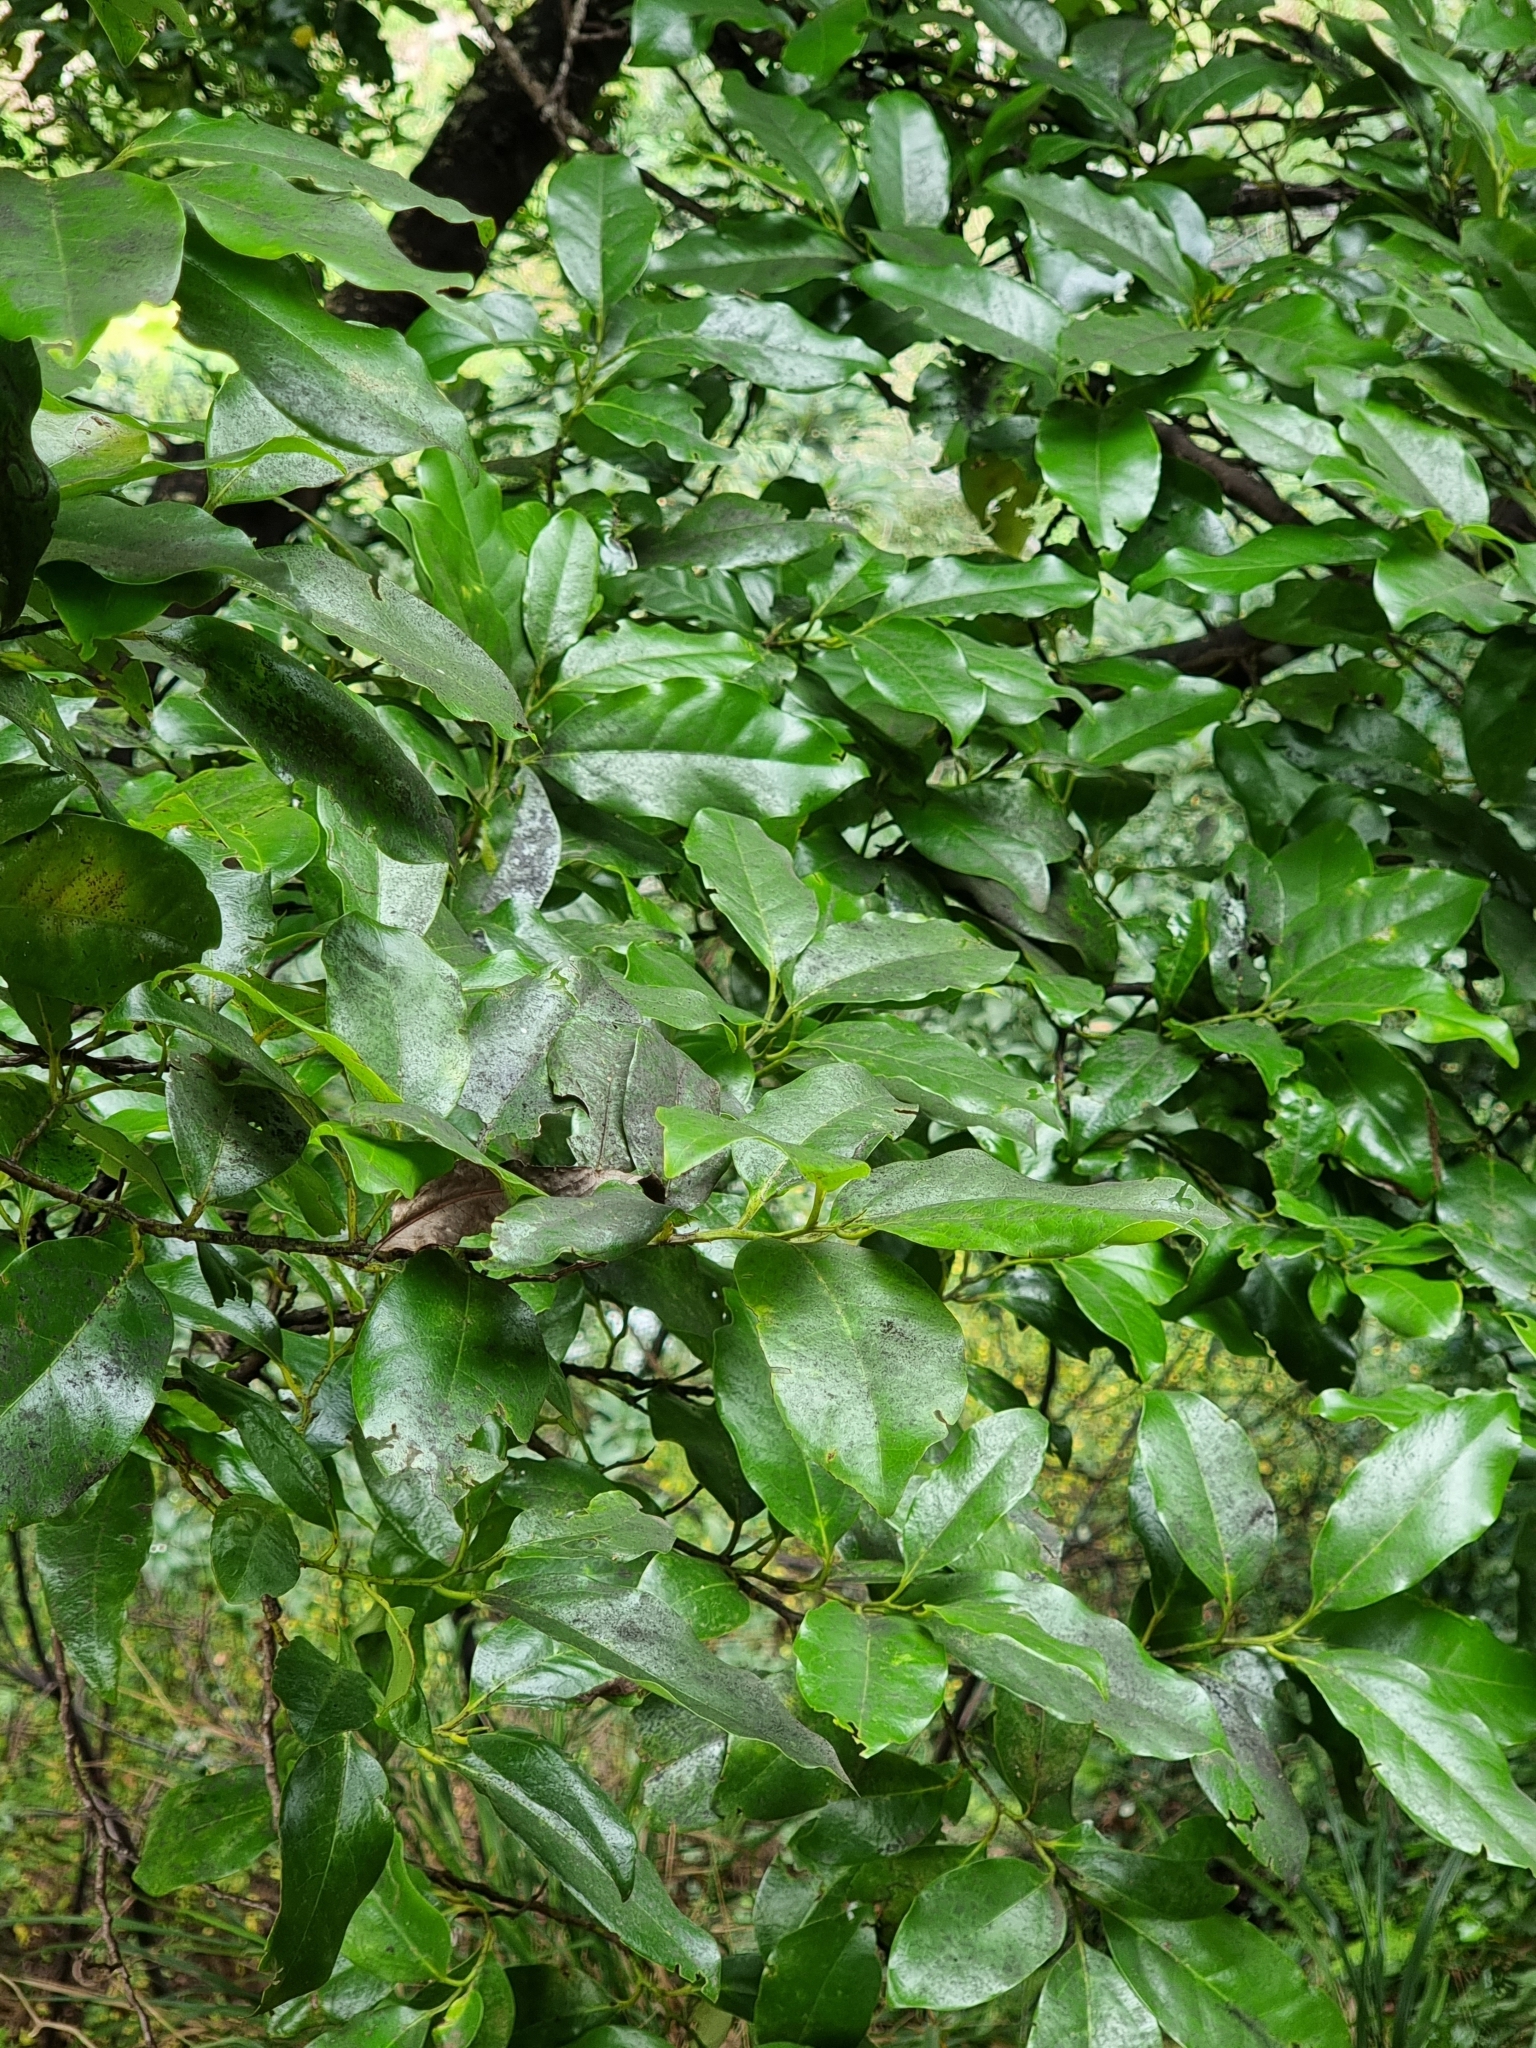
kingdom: Plantae
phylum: Tracheophyta
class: Magnoliopsida
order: Laurales
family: Lauraceae
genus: Mespilodaphne
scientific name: Mespilodaphne foetens
